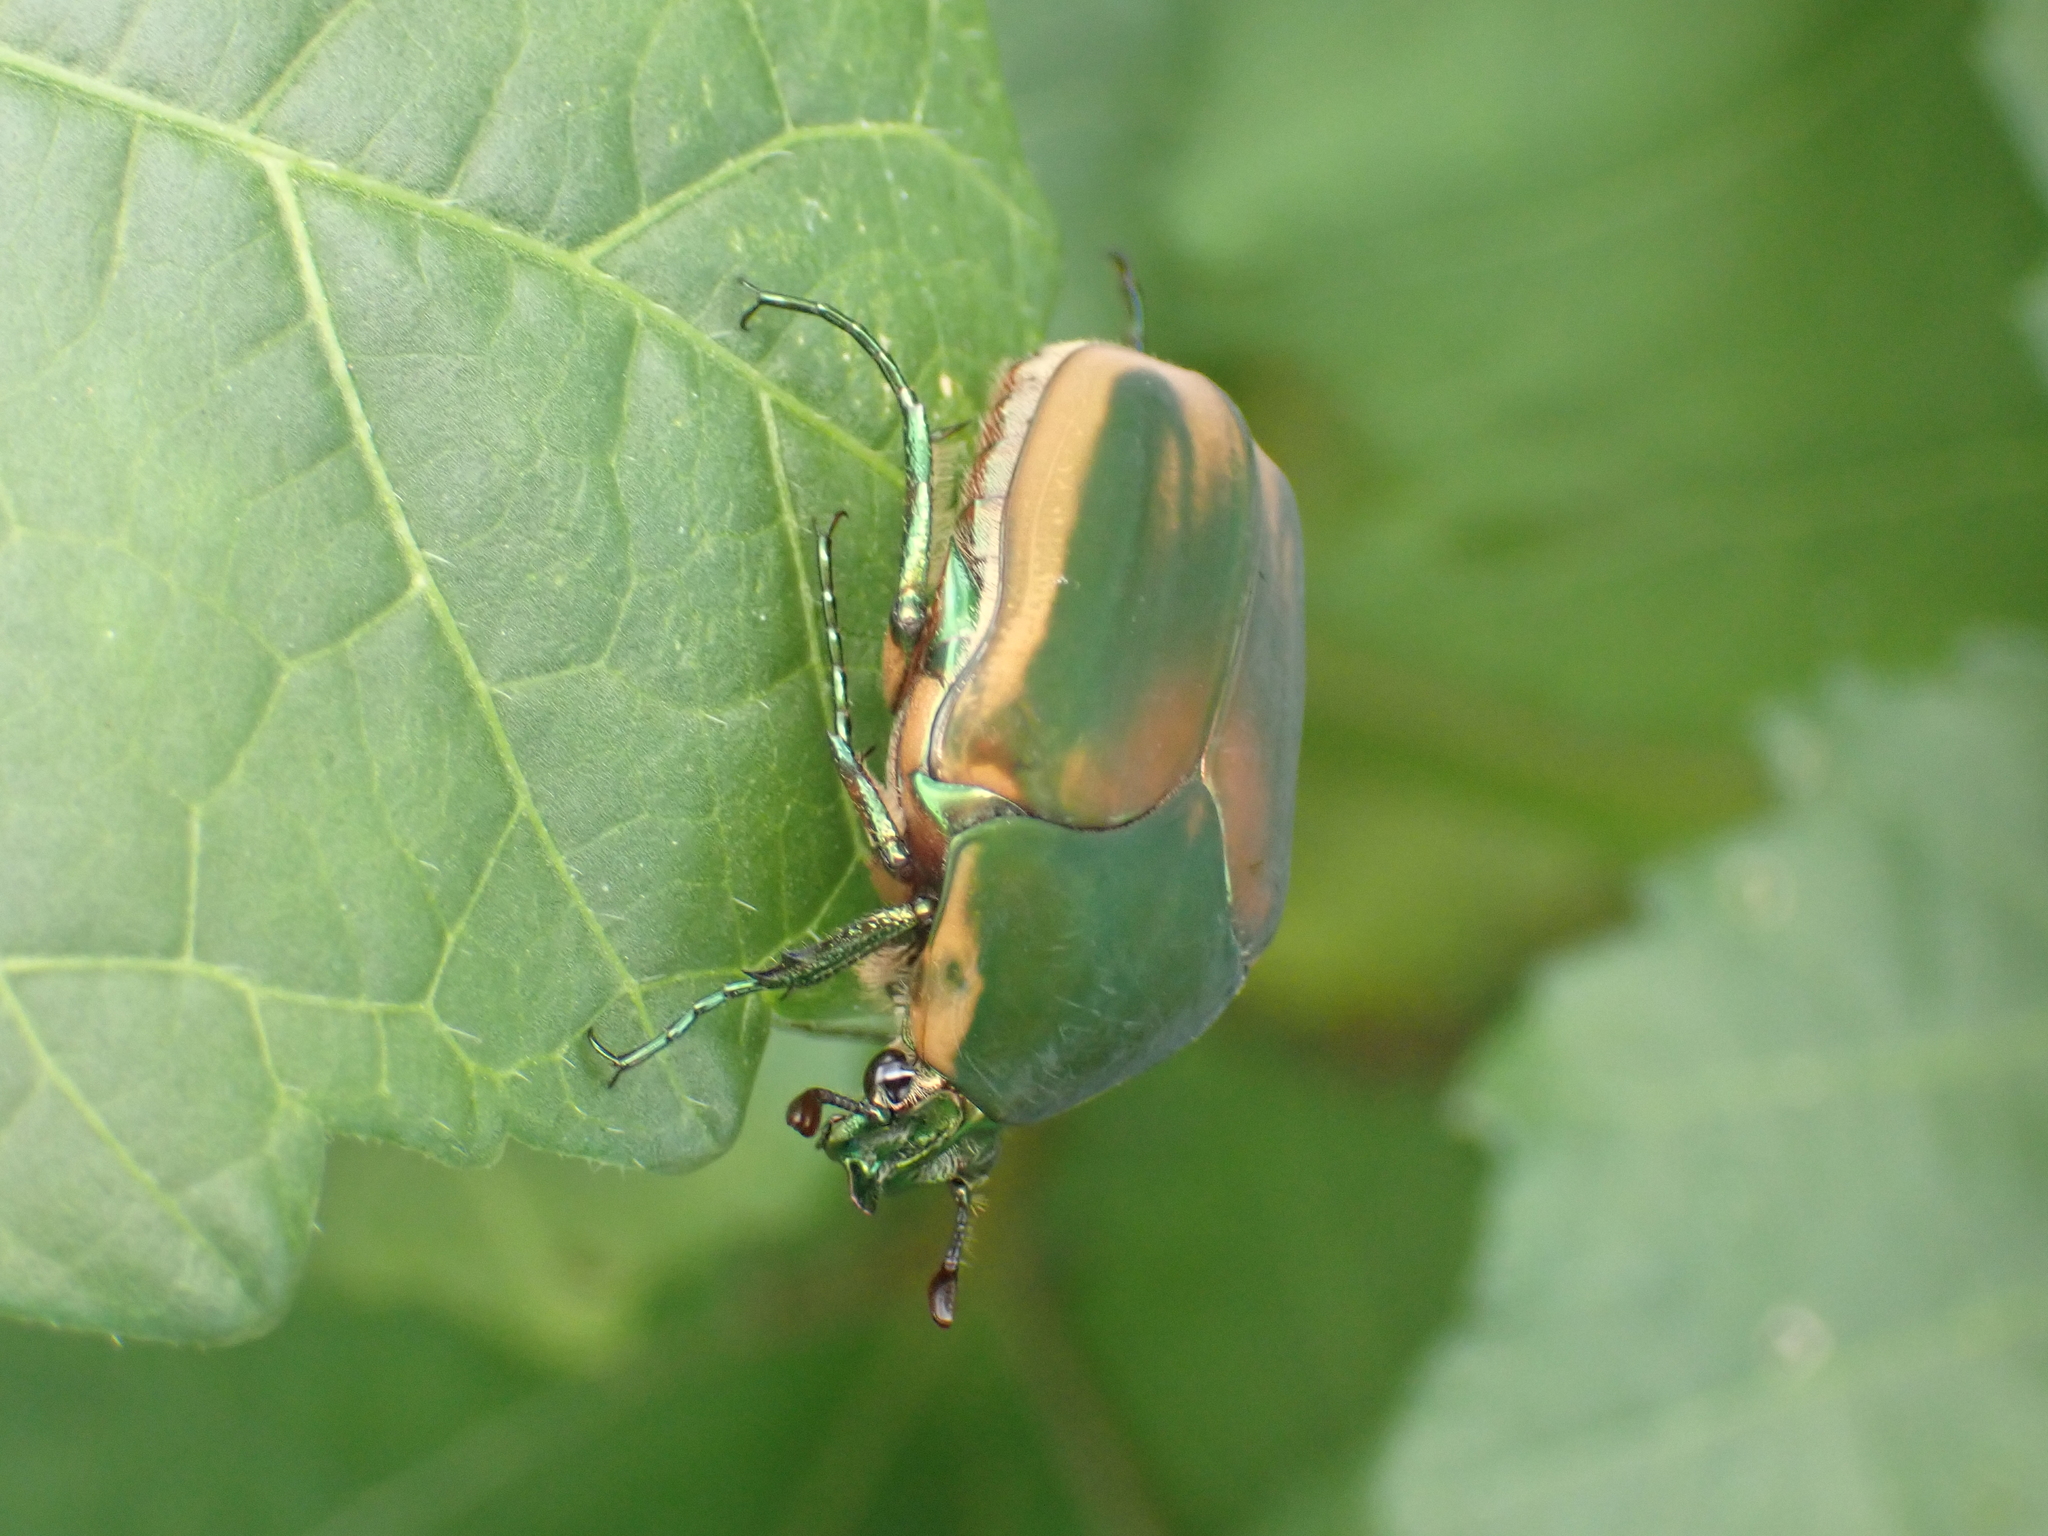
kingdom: Animalia
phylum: Arthropoda
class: Insecta
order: Coleoptera
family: Scarabaeidae
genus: Cotinis
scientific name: Cotinis nitida
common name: Common green june beetle
